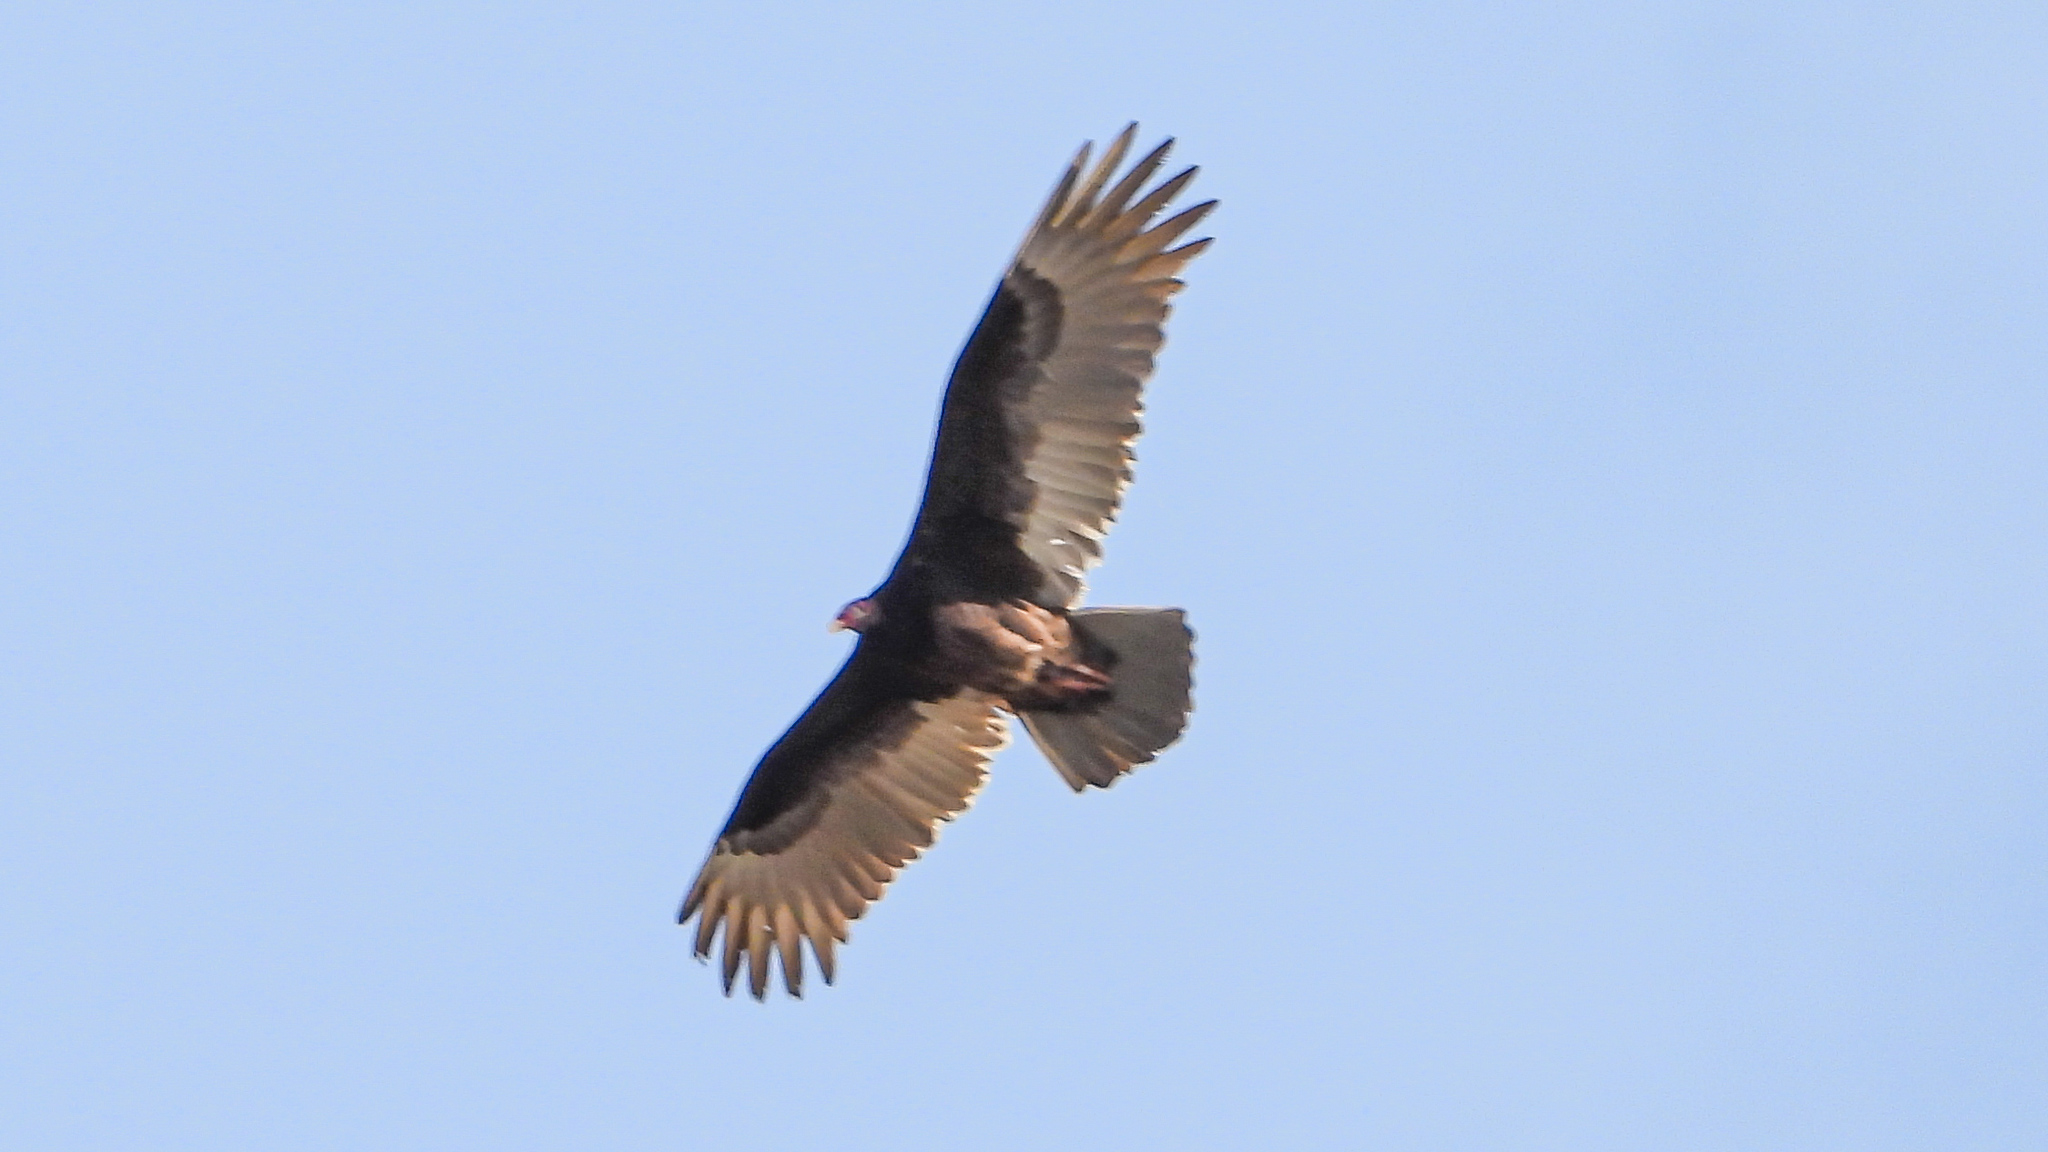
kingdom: Animalia
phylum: Chordata
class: Aves
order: Accipitriformes
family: Cathartidae
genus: Cathartes
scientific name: Cathartes aura
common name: Turkey vulture
